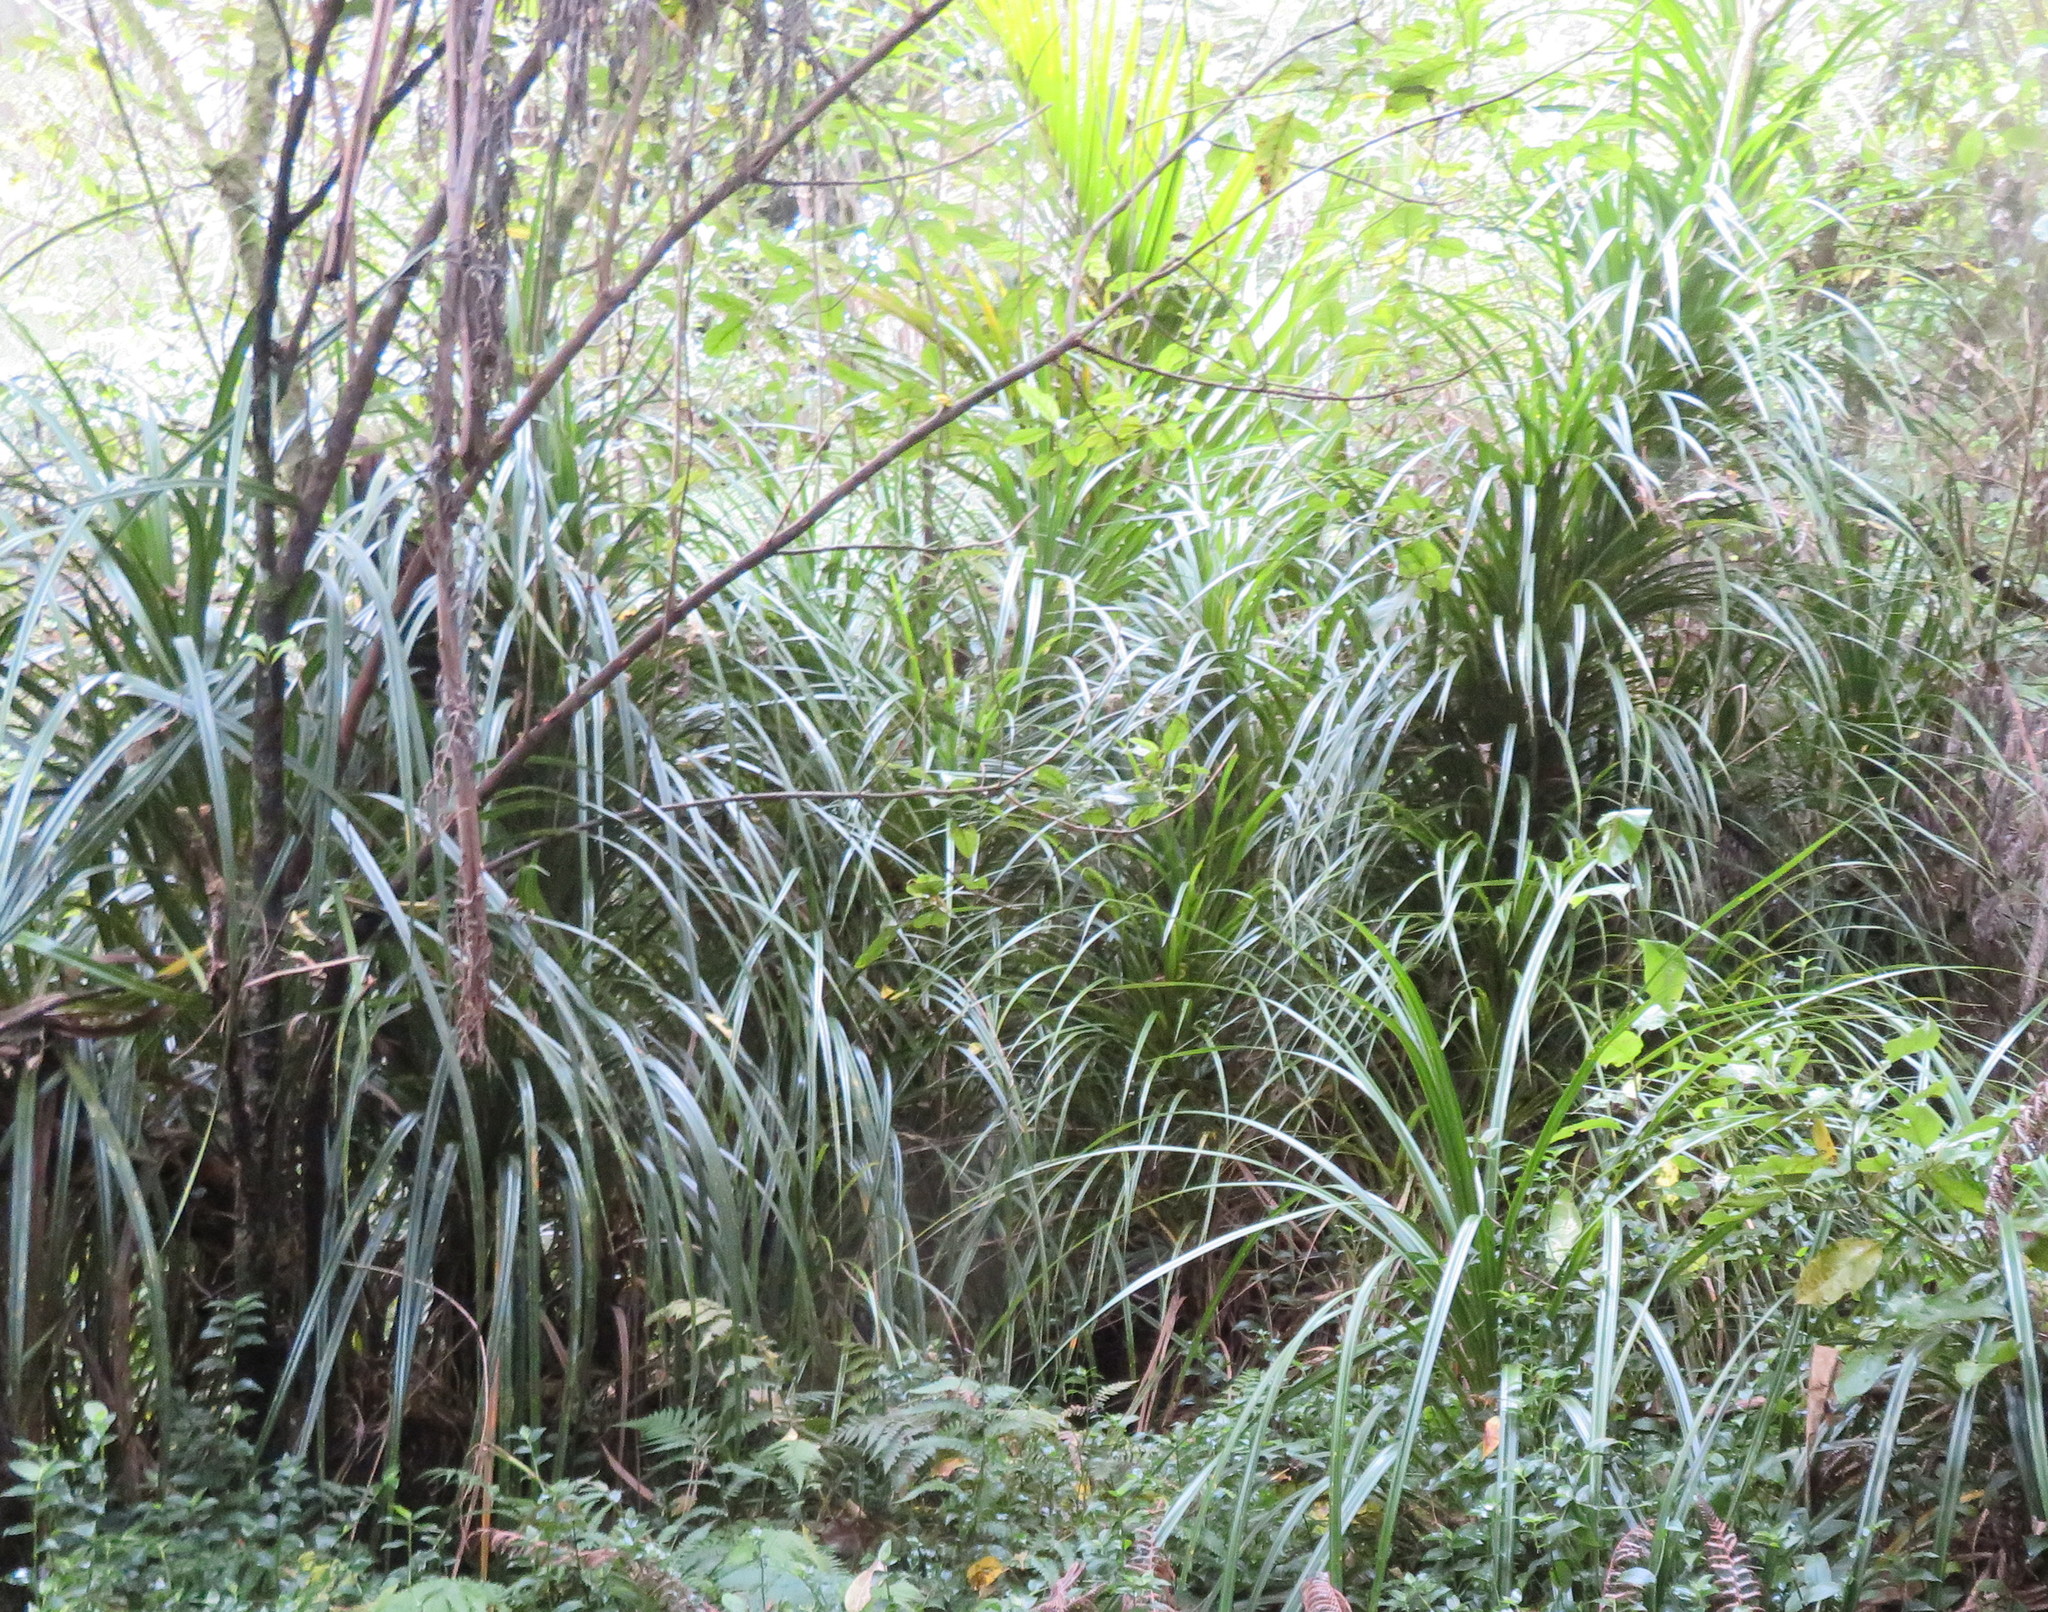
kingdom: Plantae
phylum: Tracheophyta
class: Liliopsida
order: Pandanales
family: Pandanaceae
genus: Freycinetia
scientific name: Freycinetia banksii
